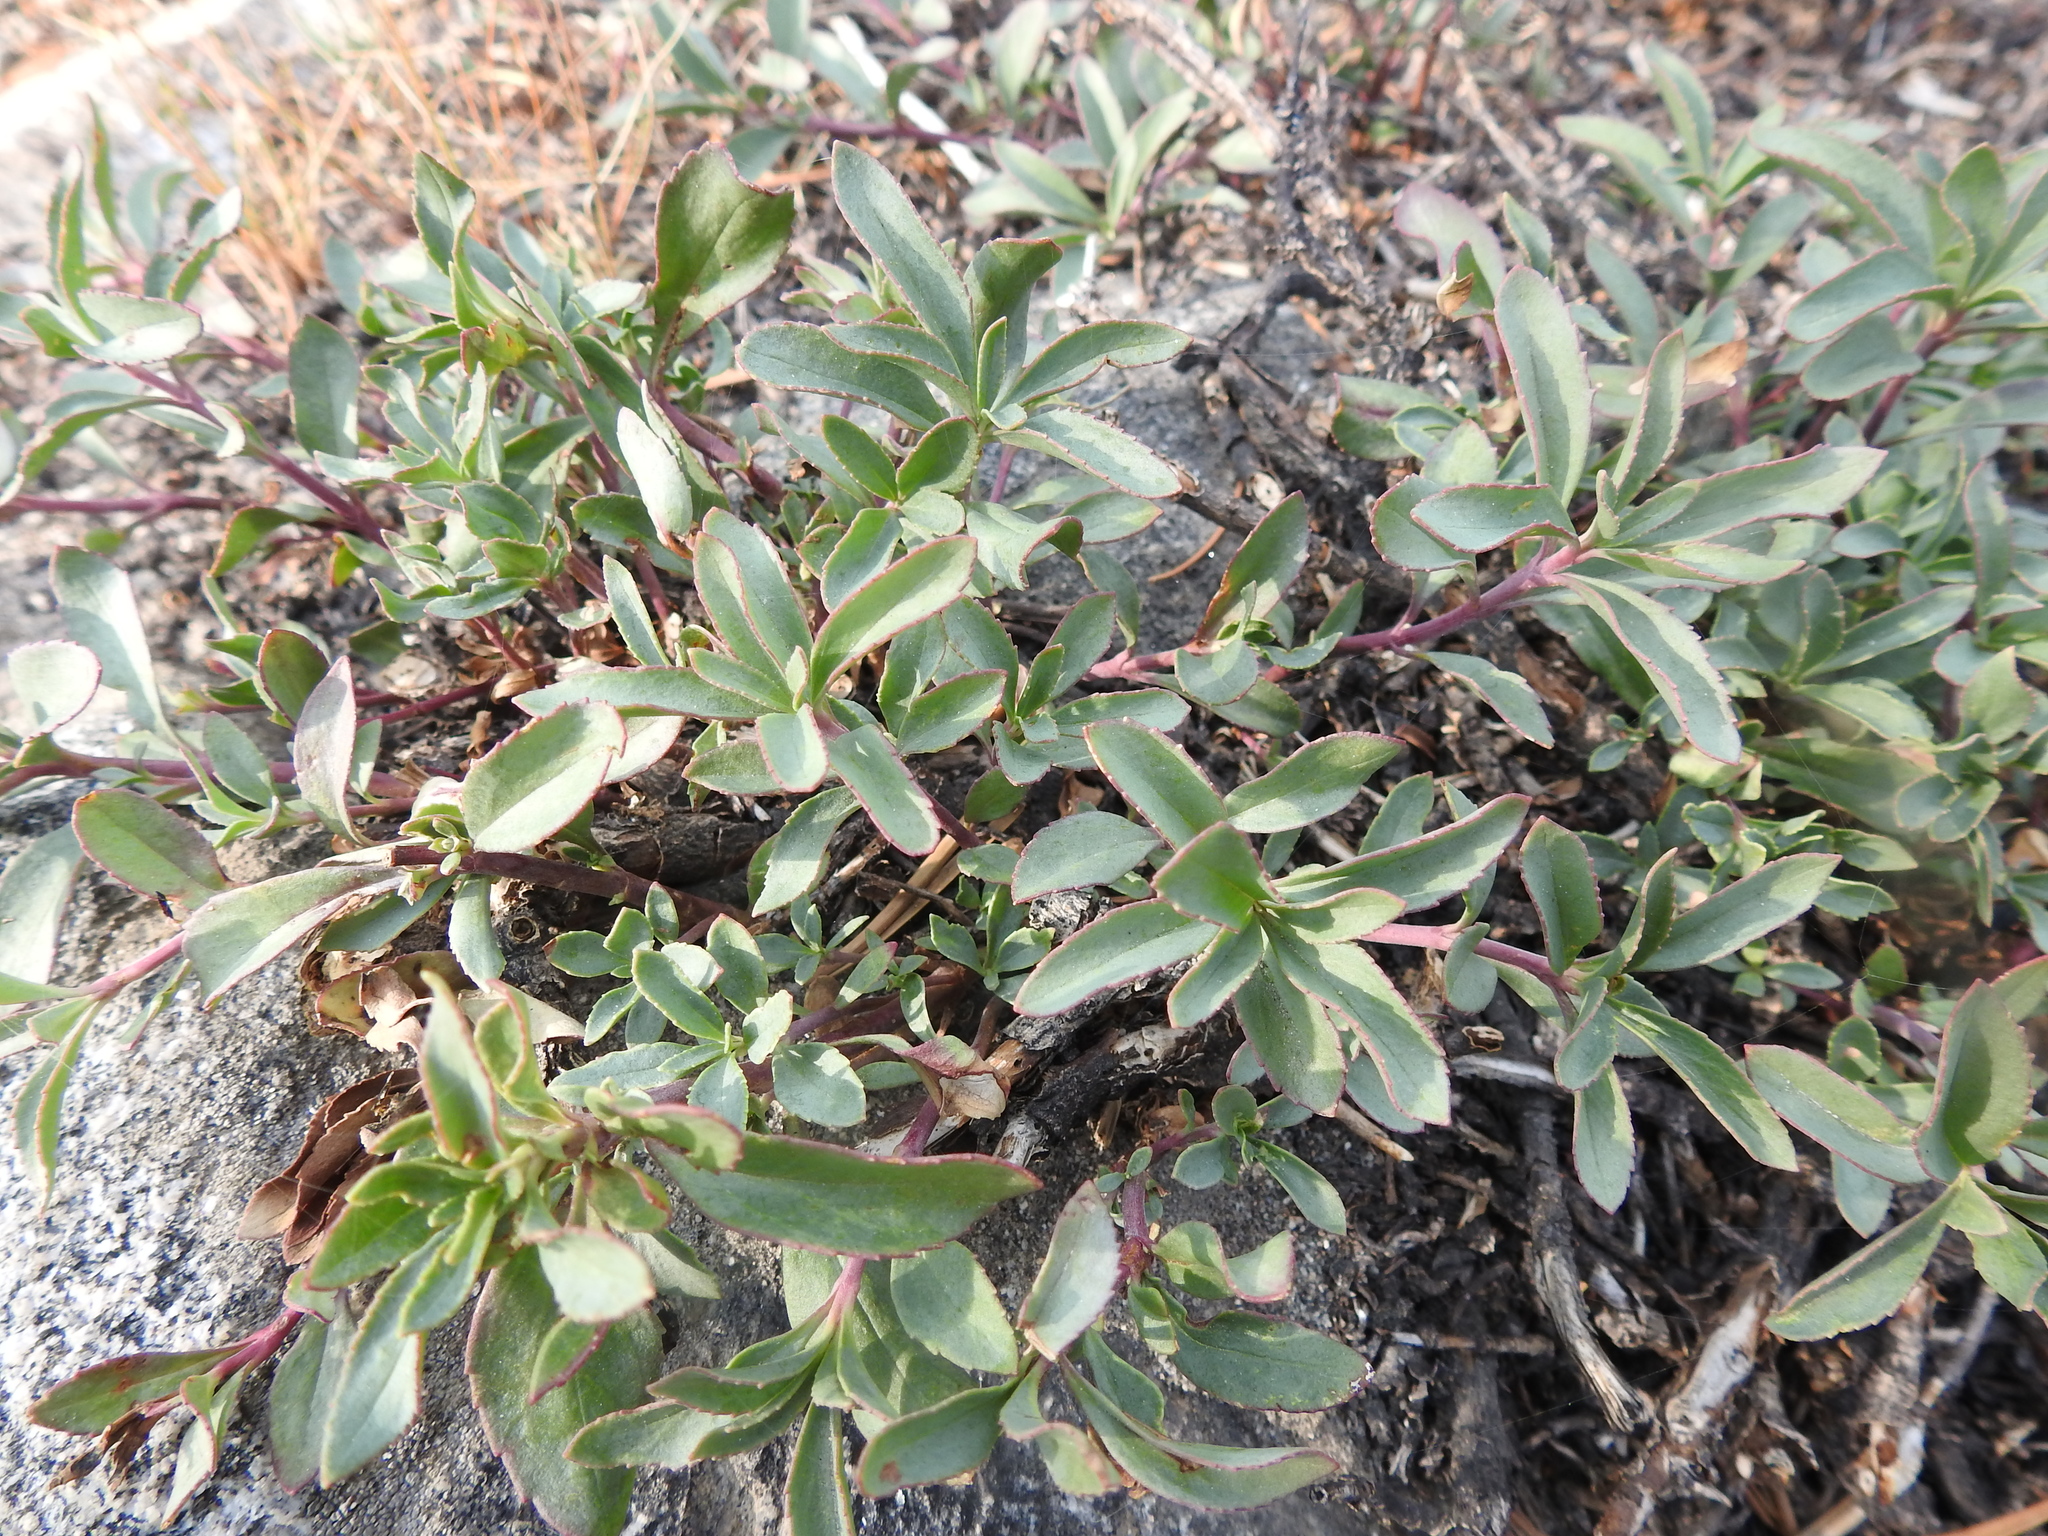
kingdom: Plantae
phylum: Tracheophyta
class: Magnoliopsida
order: Lamiales
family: Plantaginaceae
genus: Penstemon
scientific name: Penstemon newberryi
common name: Mountain-pride
